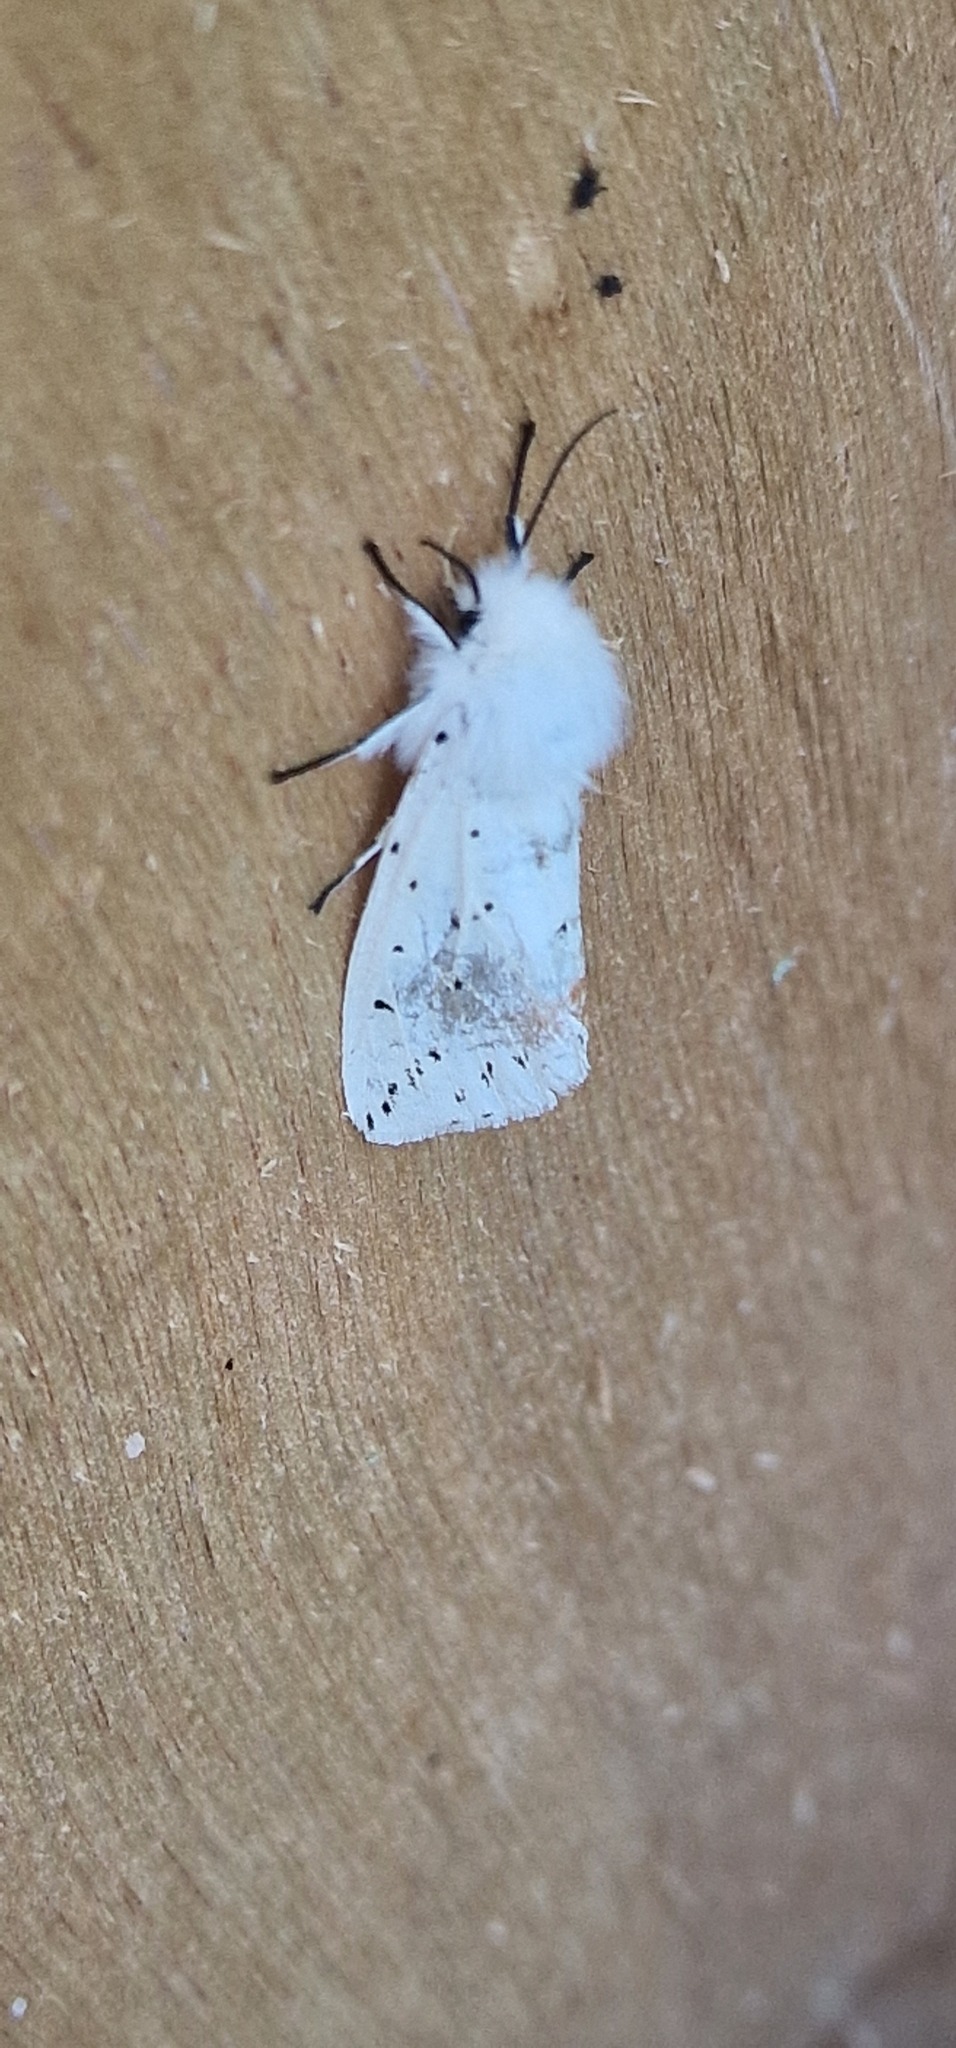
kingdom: Animalia
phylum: Arthropoda
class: Insecta
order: Lepidoptera
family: Erebidae
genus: Spilosoma
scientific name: Spilosoma lubricipeda
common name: White ermine
